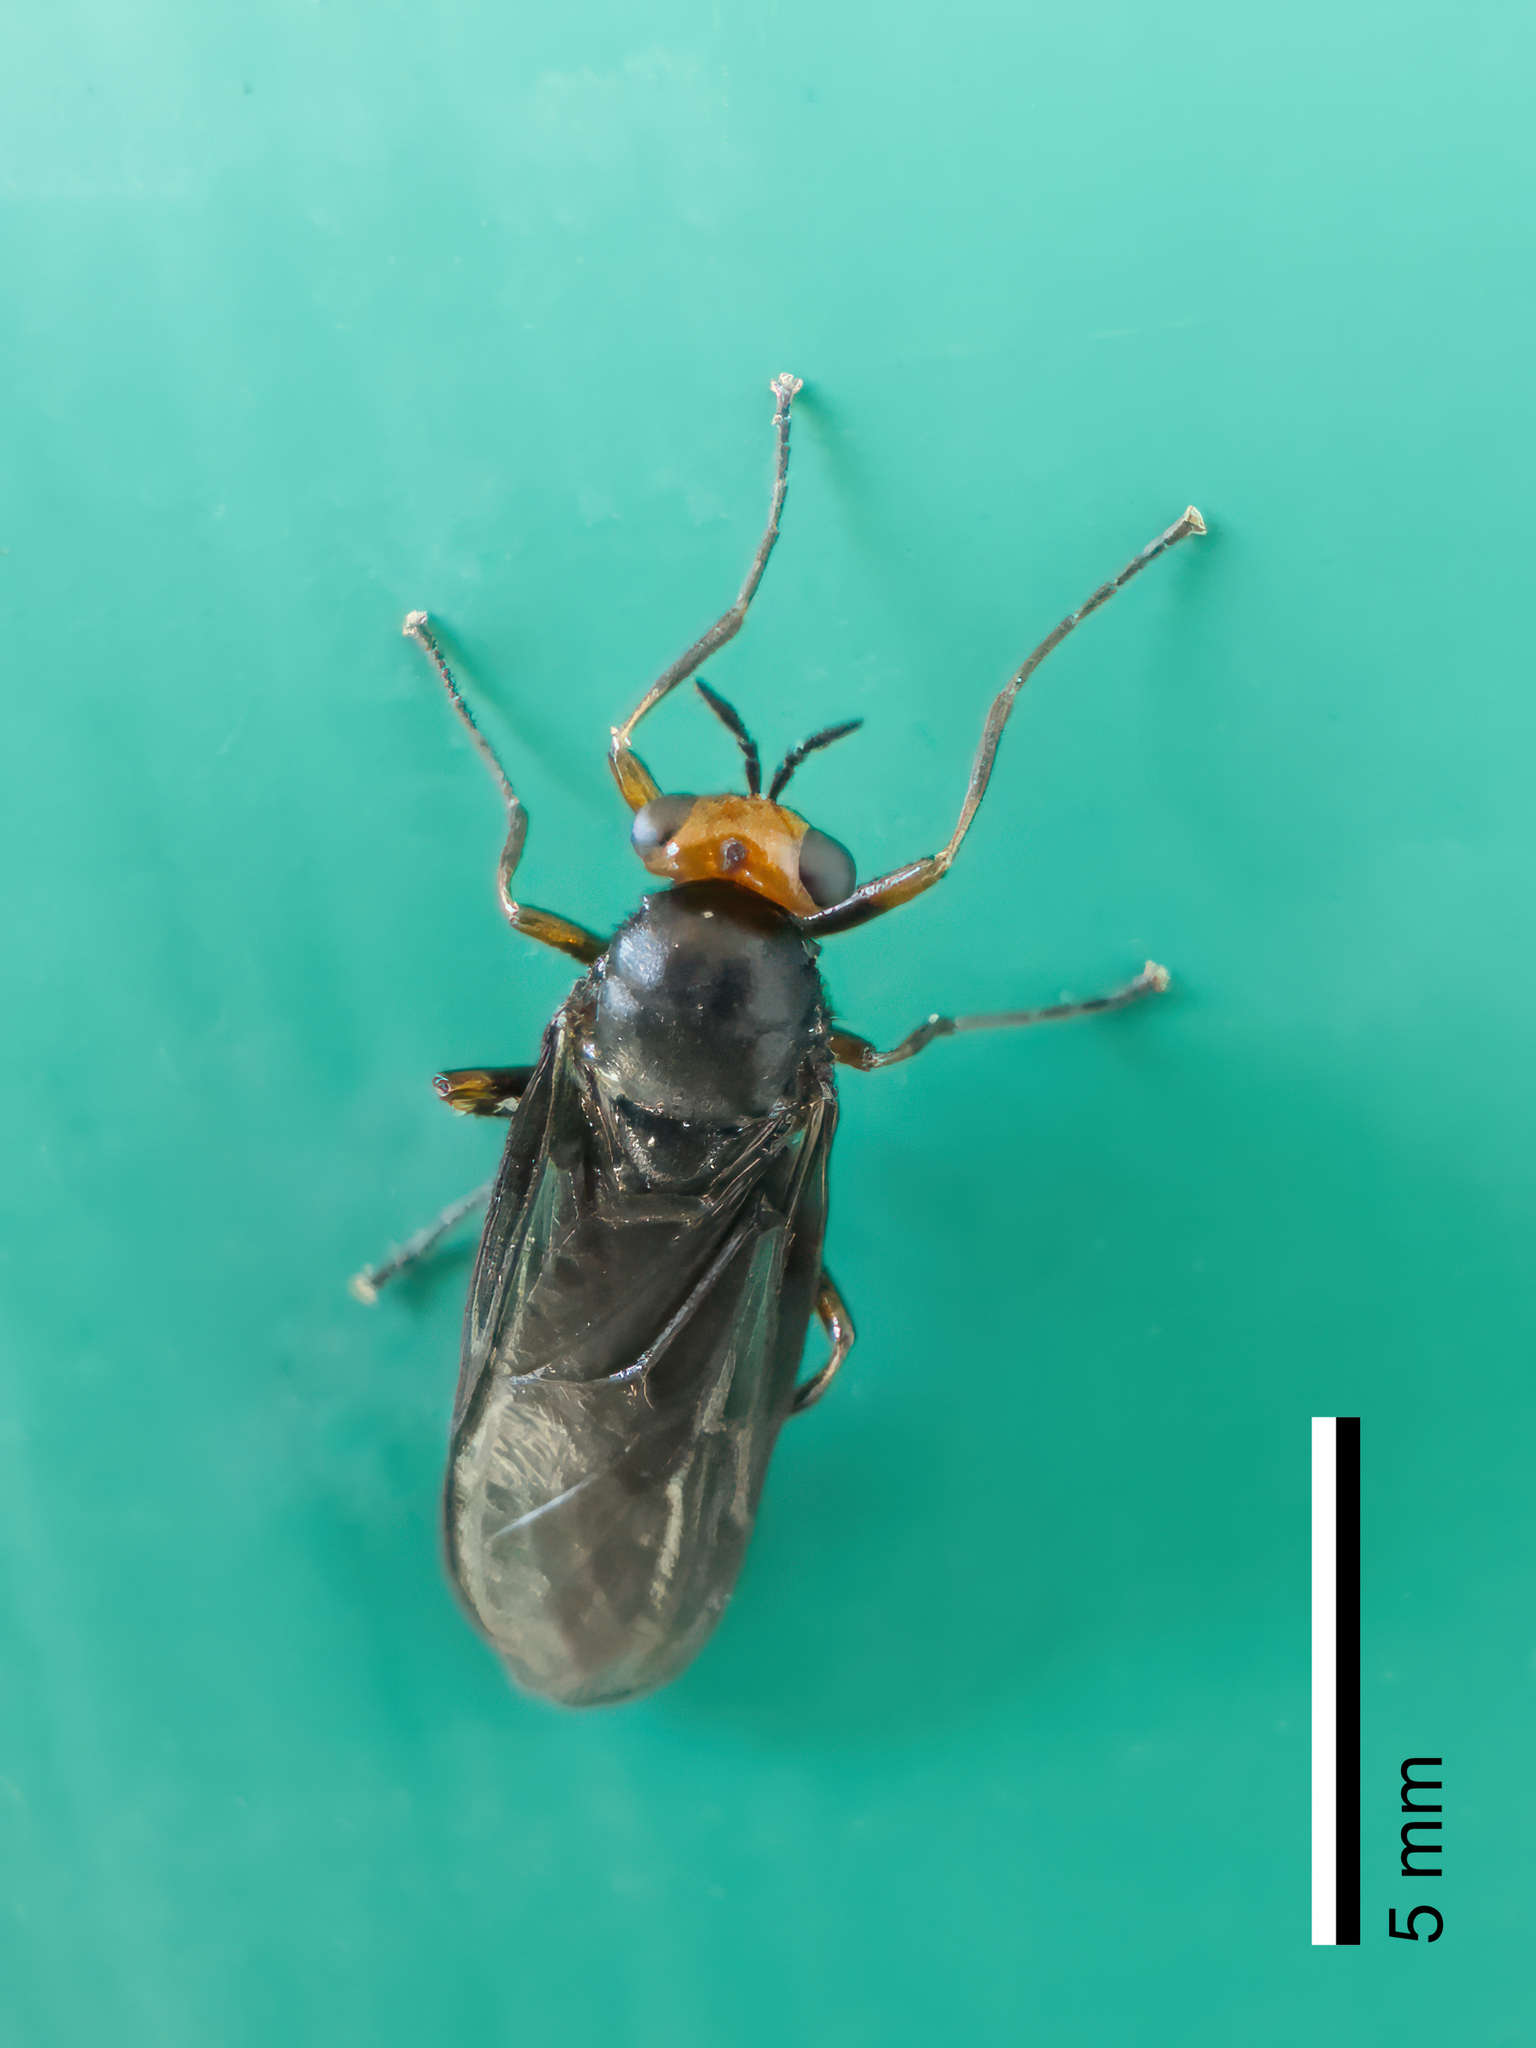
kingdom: Animalia
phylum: Arthropoda
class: Insecta
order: Diptera
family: Stratiomyidae
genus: Inopus
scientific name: Inopus rubriceps
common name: Soldier fly
